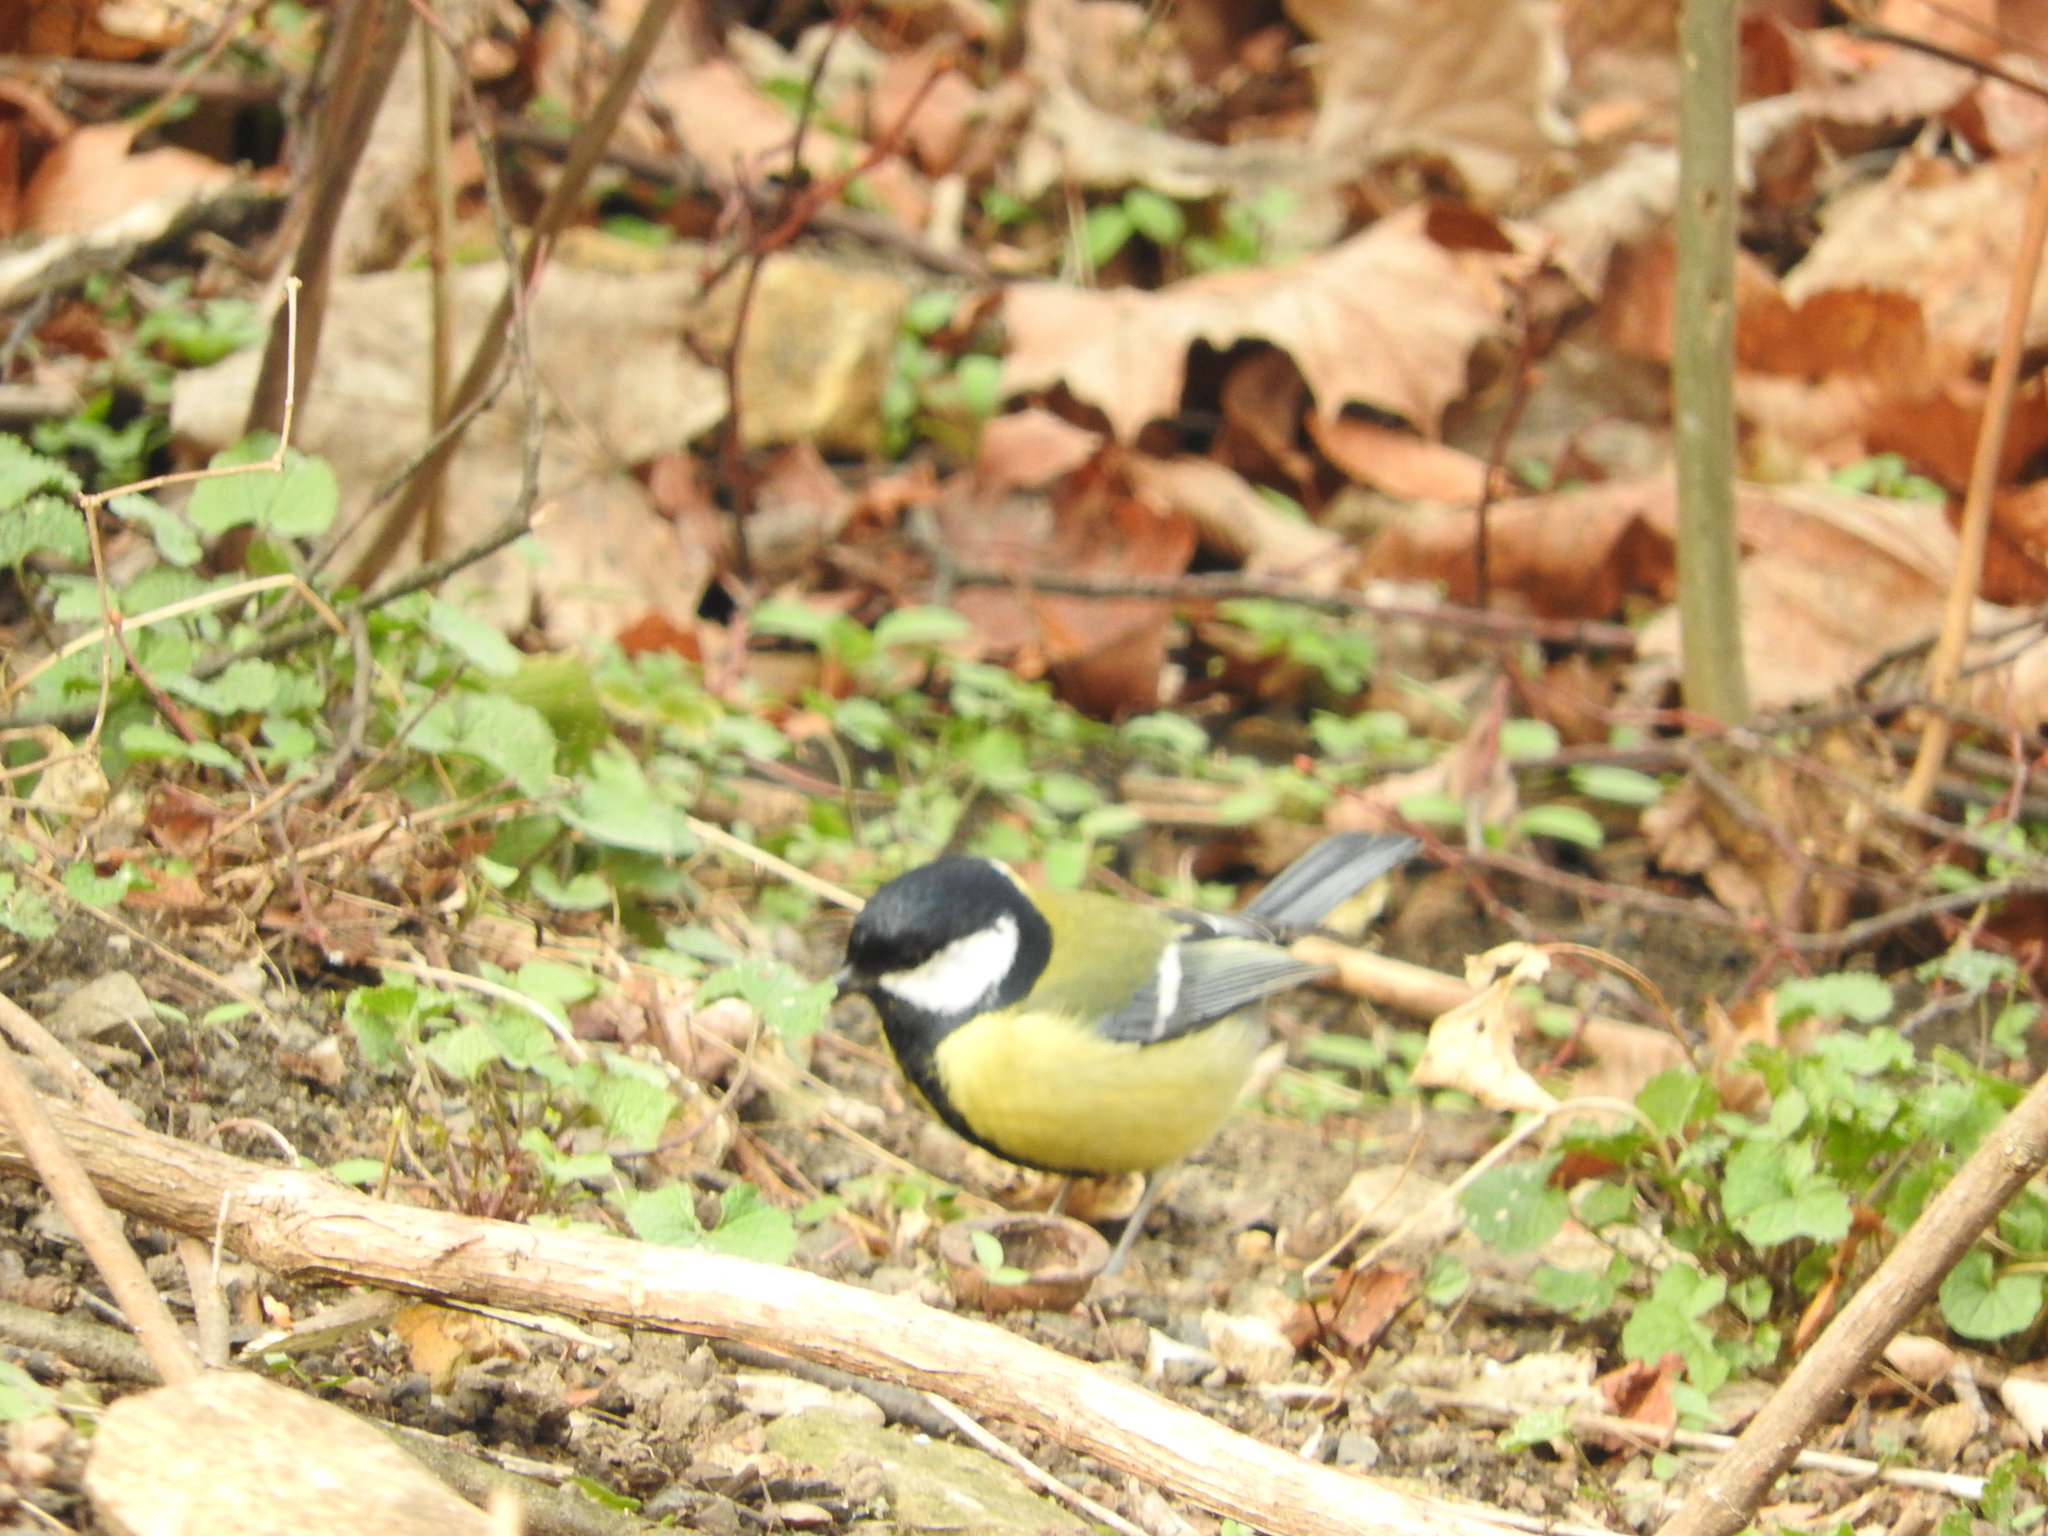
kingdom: Animalia
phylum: Chordata
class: Aves
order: Passeriformes
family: Paridae
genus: Parus
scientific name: Parus major
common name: Great tit
